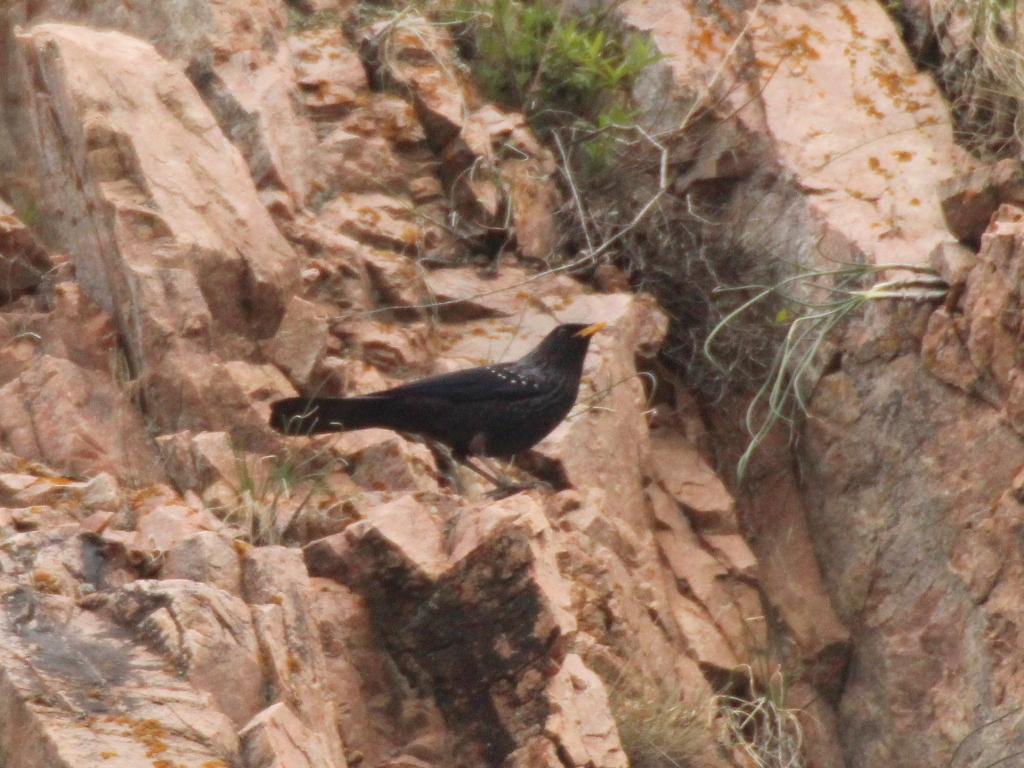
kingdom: Animalia
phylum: Chordata
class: Aves
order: Passeriformes
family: Muscicapidae
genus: Myophonus
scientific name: Myophonus caeruleus
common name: Blue whistling-thrush
